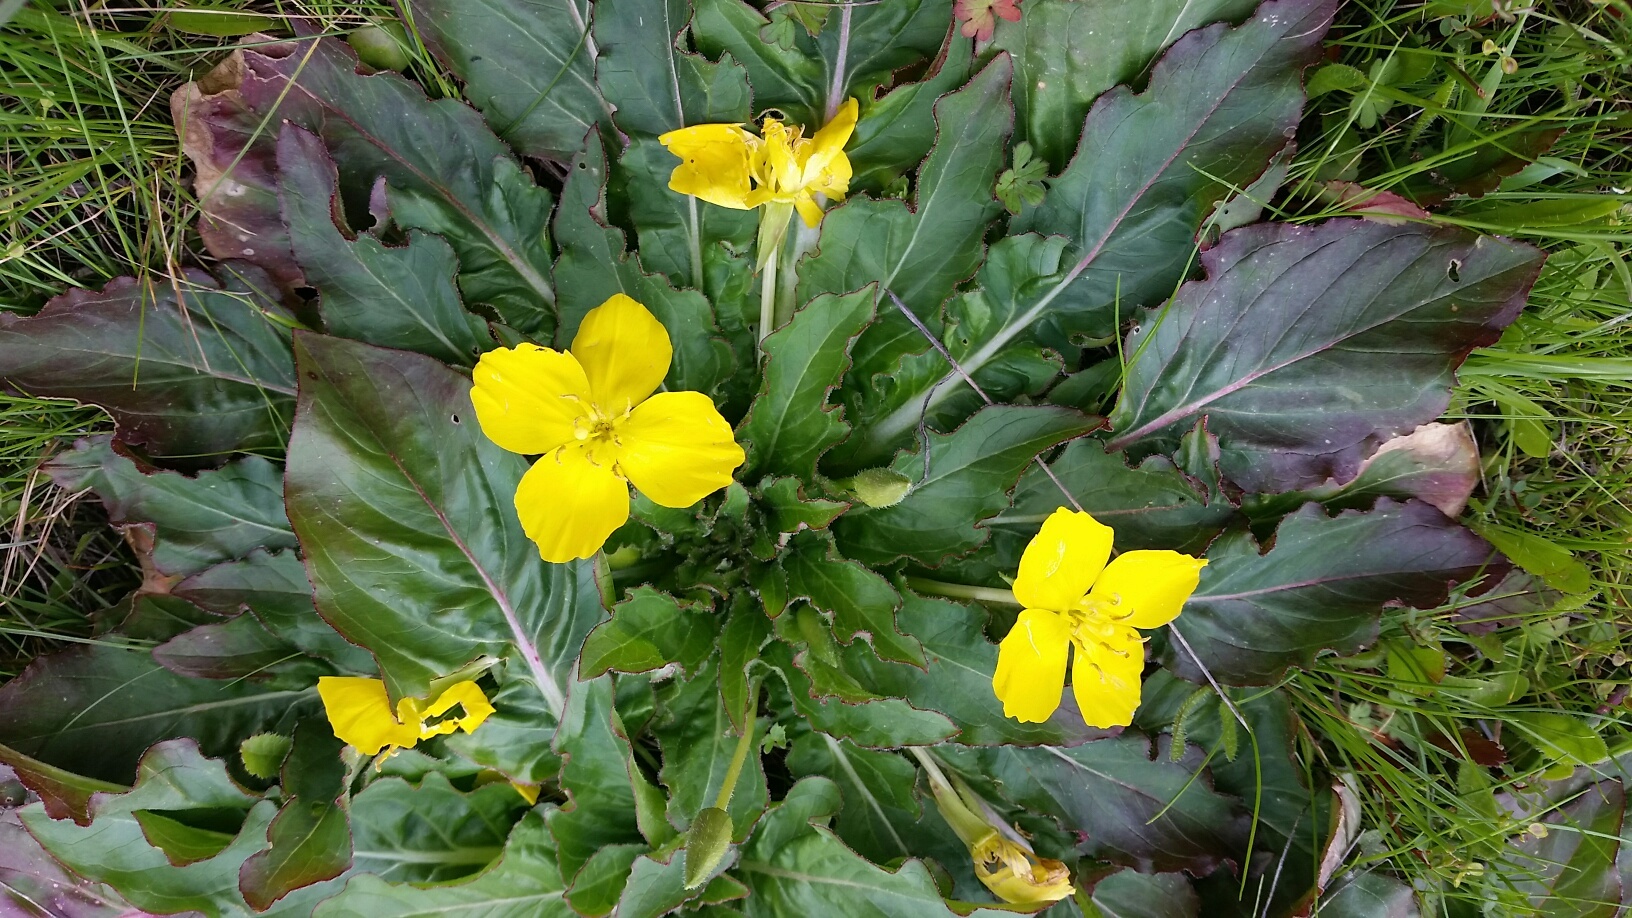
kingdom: Plantae
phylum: Tracheophyta
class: Magnoliopsida
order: Myrtales
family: Onagraceae
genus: Taraxia
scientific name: Taraxia ovata
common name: Goldeneggs
